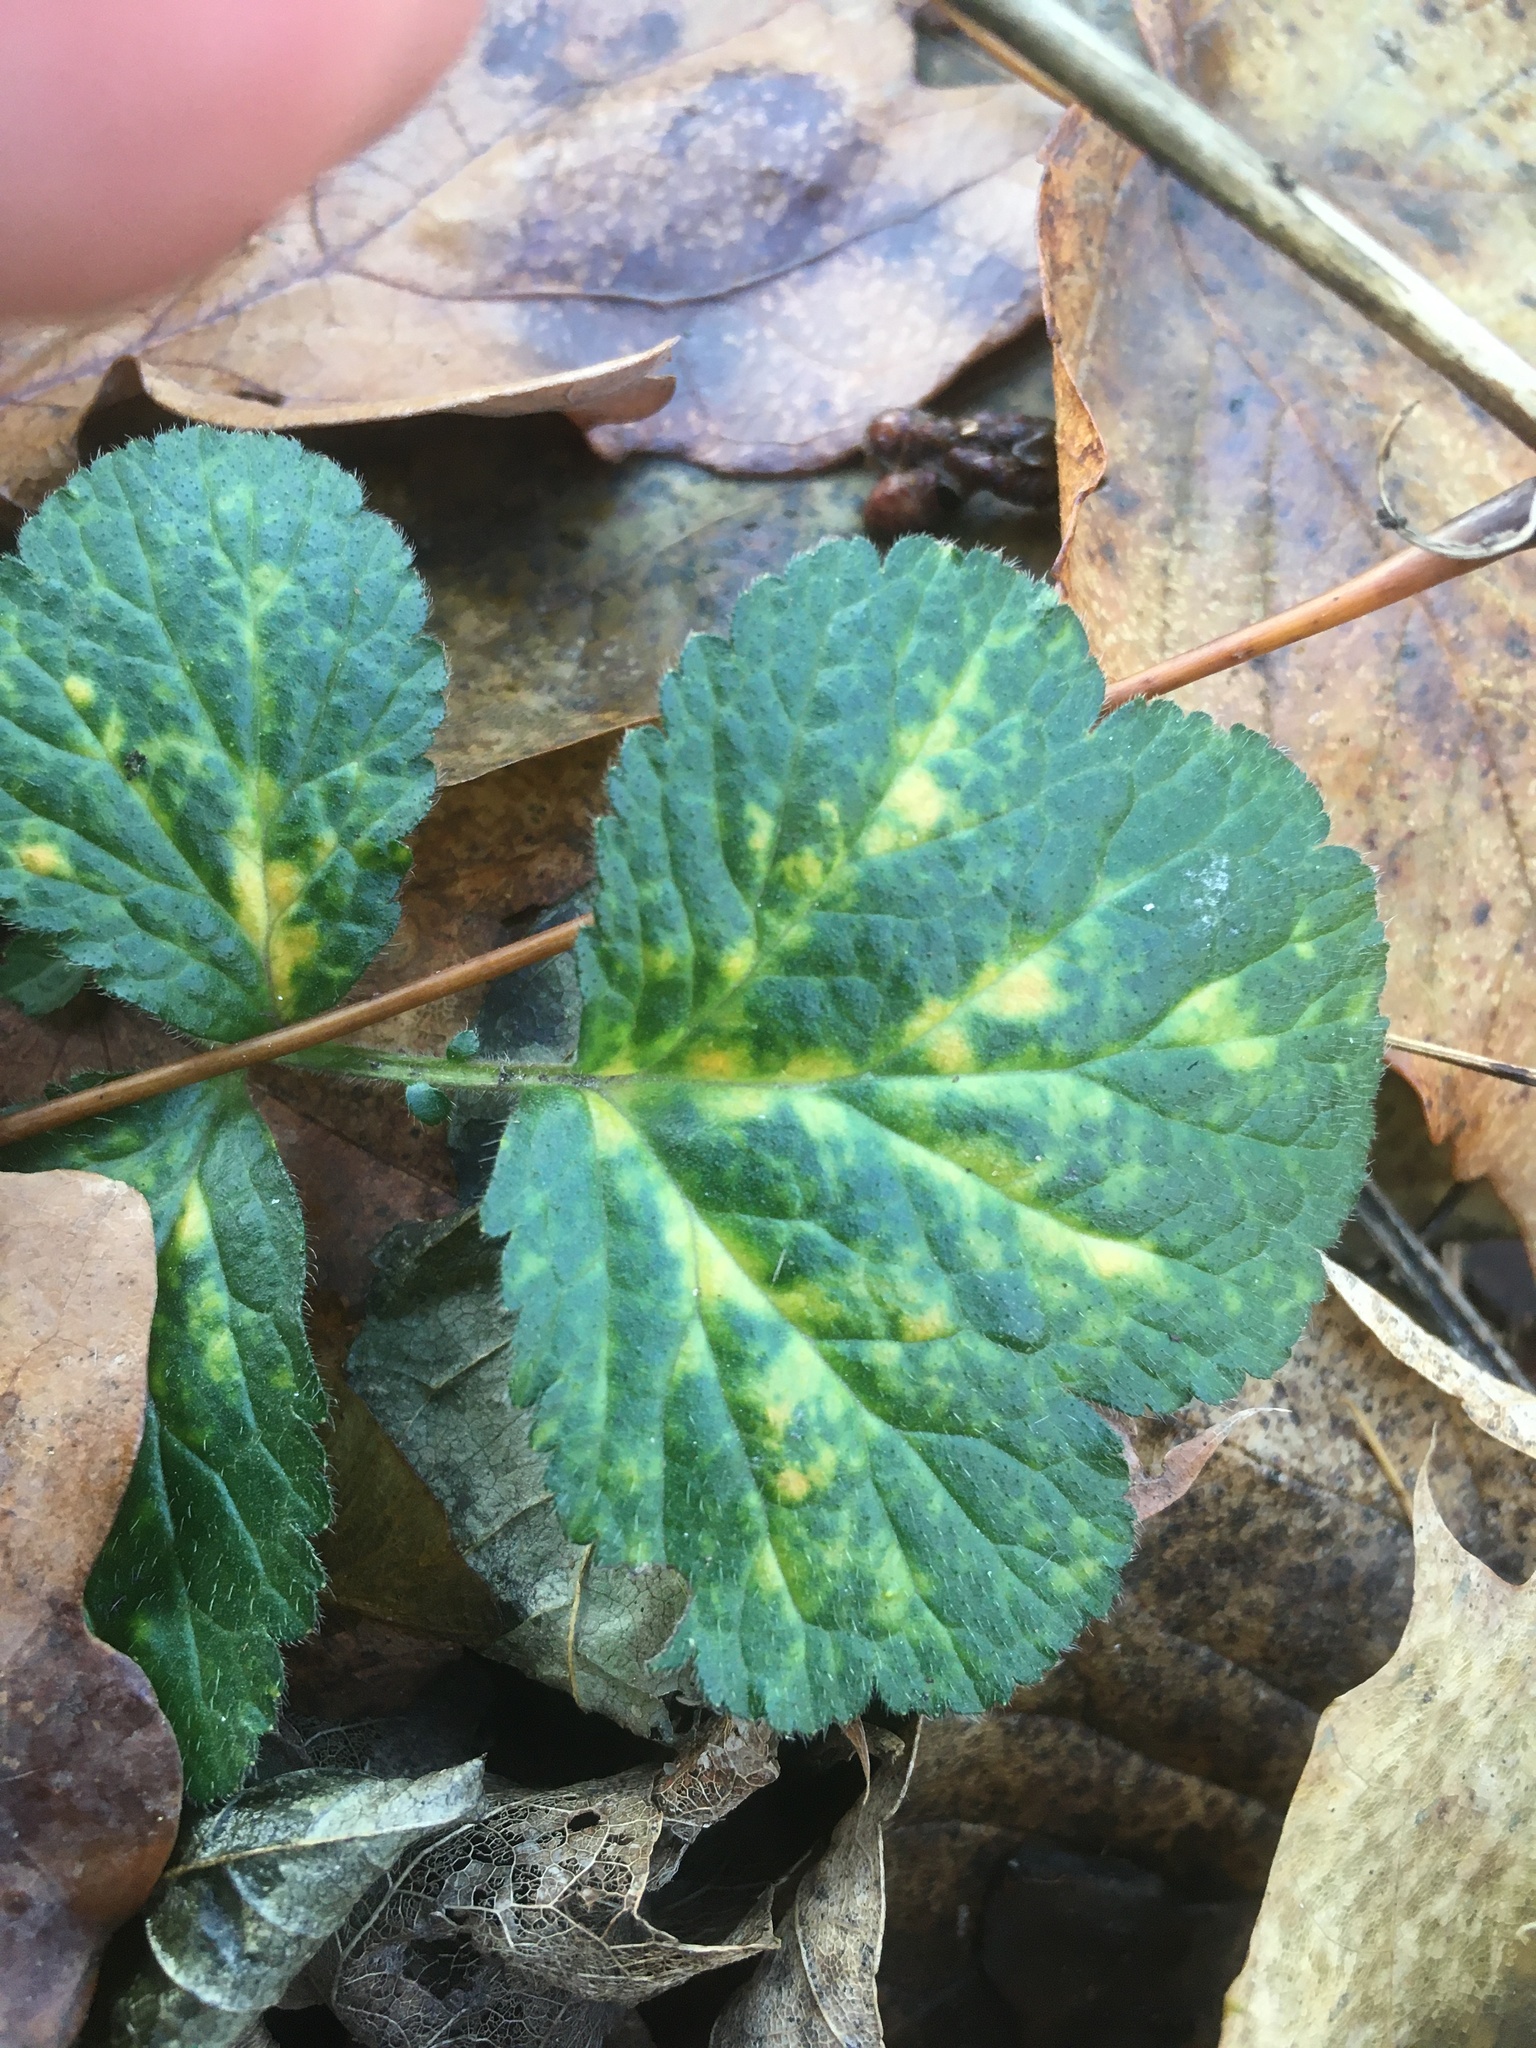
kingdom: Plantae
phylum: Tracheophyta
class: Magnoliopsida
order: Rosales
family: Rosaceae
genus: Geum
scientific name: Geum urbanum
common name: Wood avens
